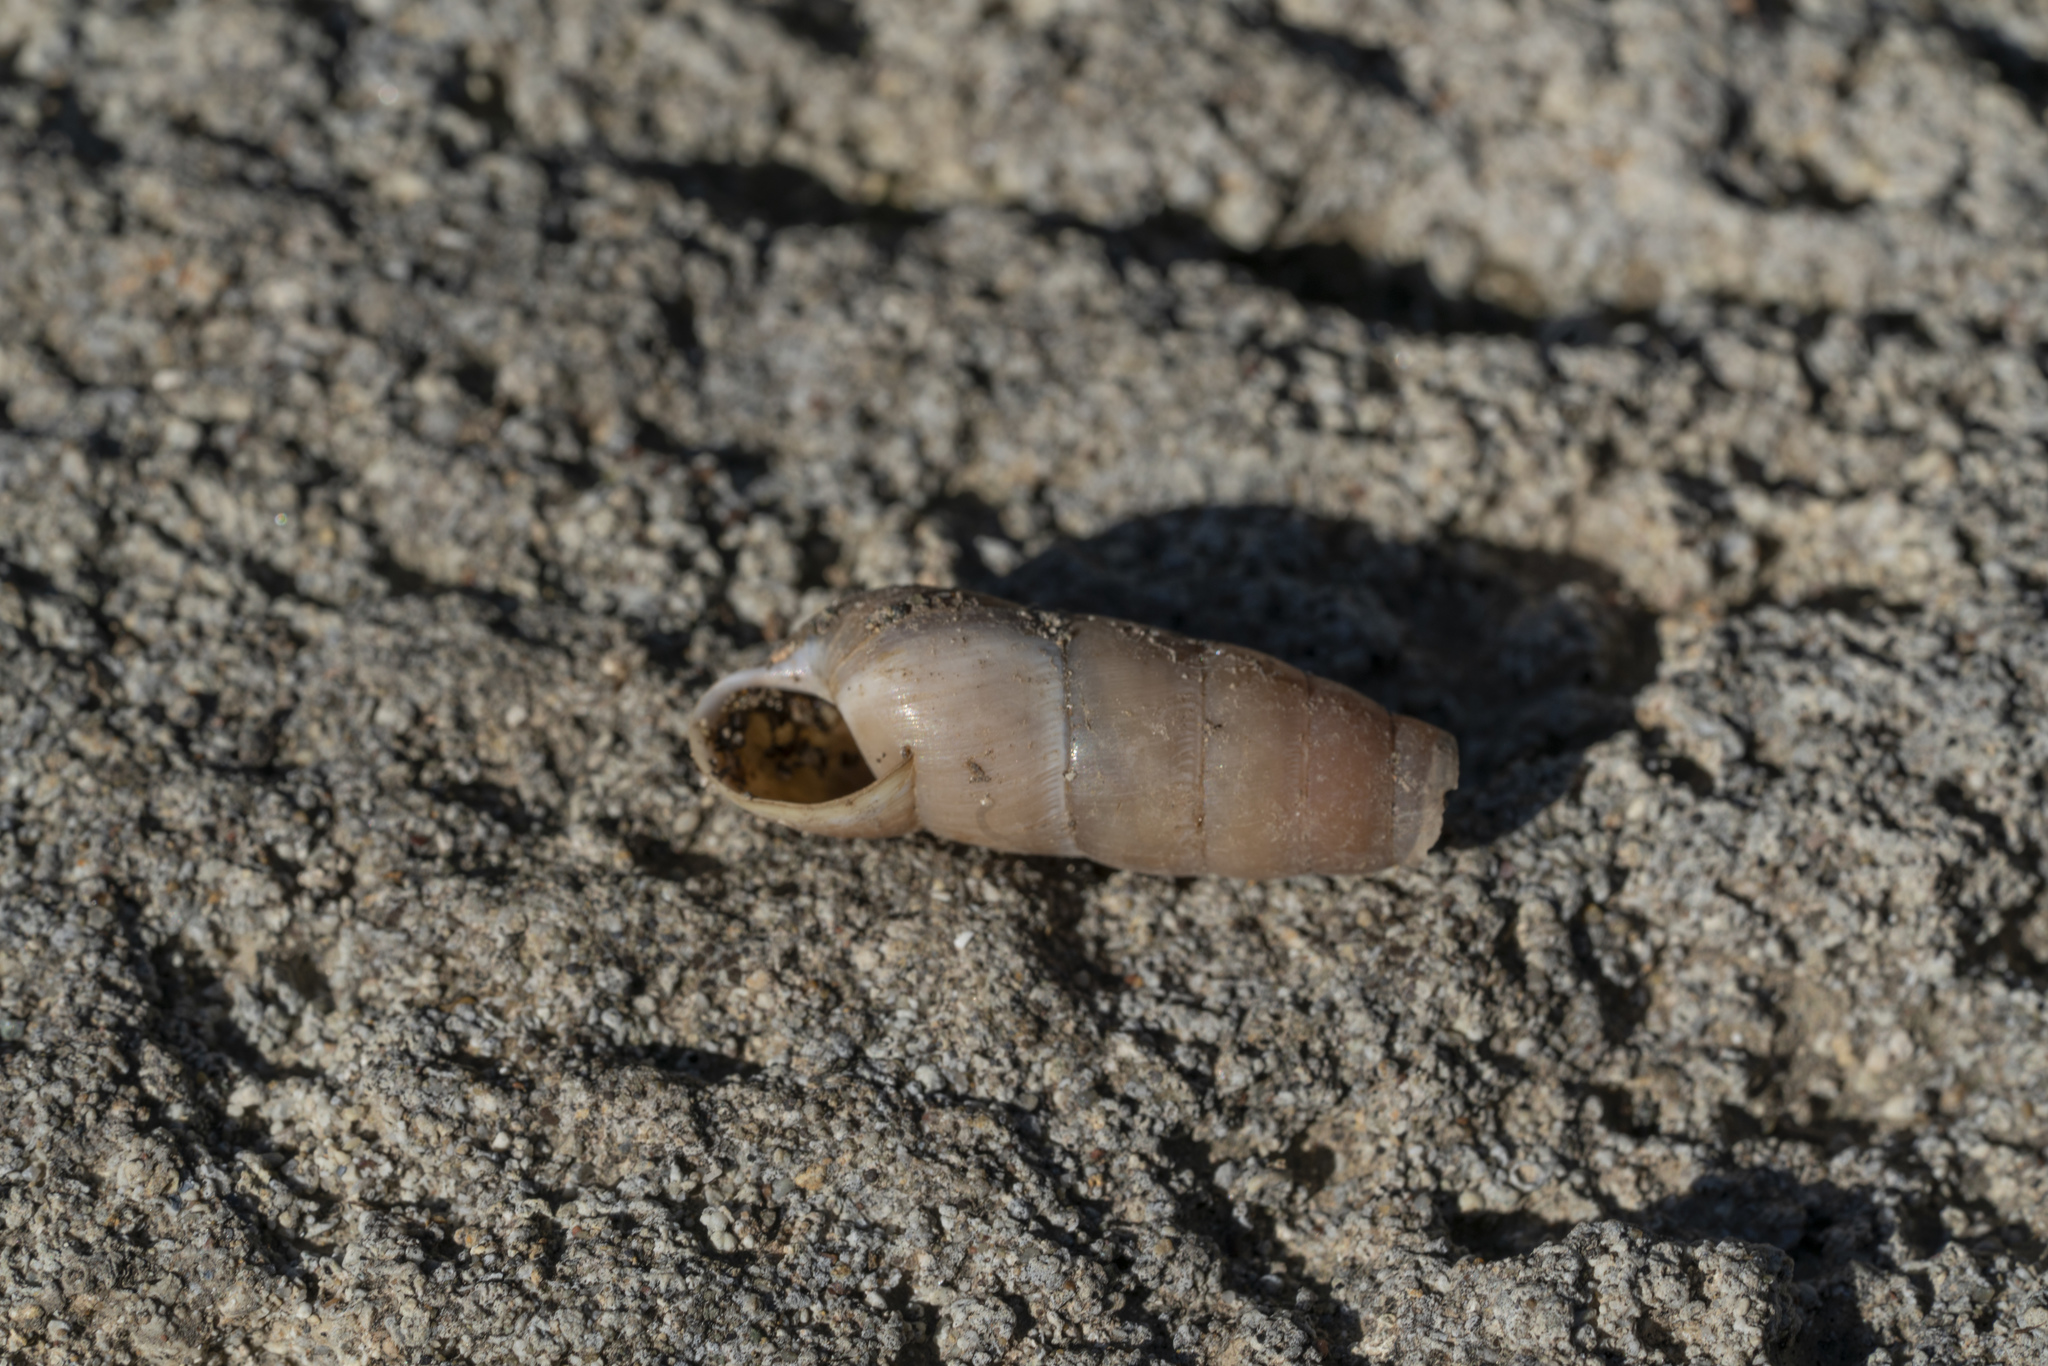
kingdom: Animalia
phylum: Mollusca
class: Gastropoda
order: Stylommatophora
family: Achatinidae
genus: Rumina
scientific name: Rumina saharica
